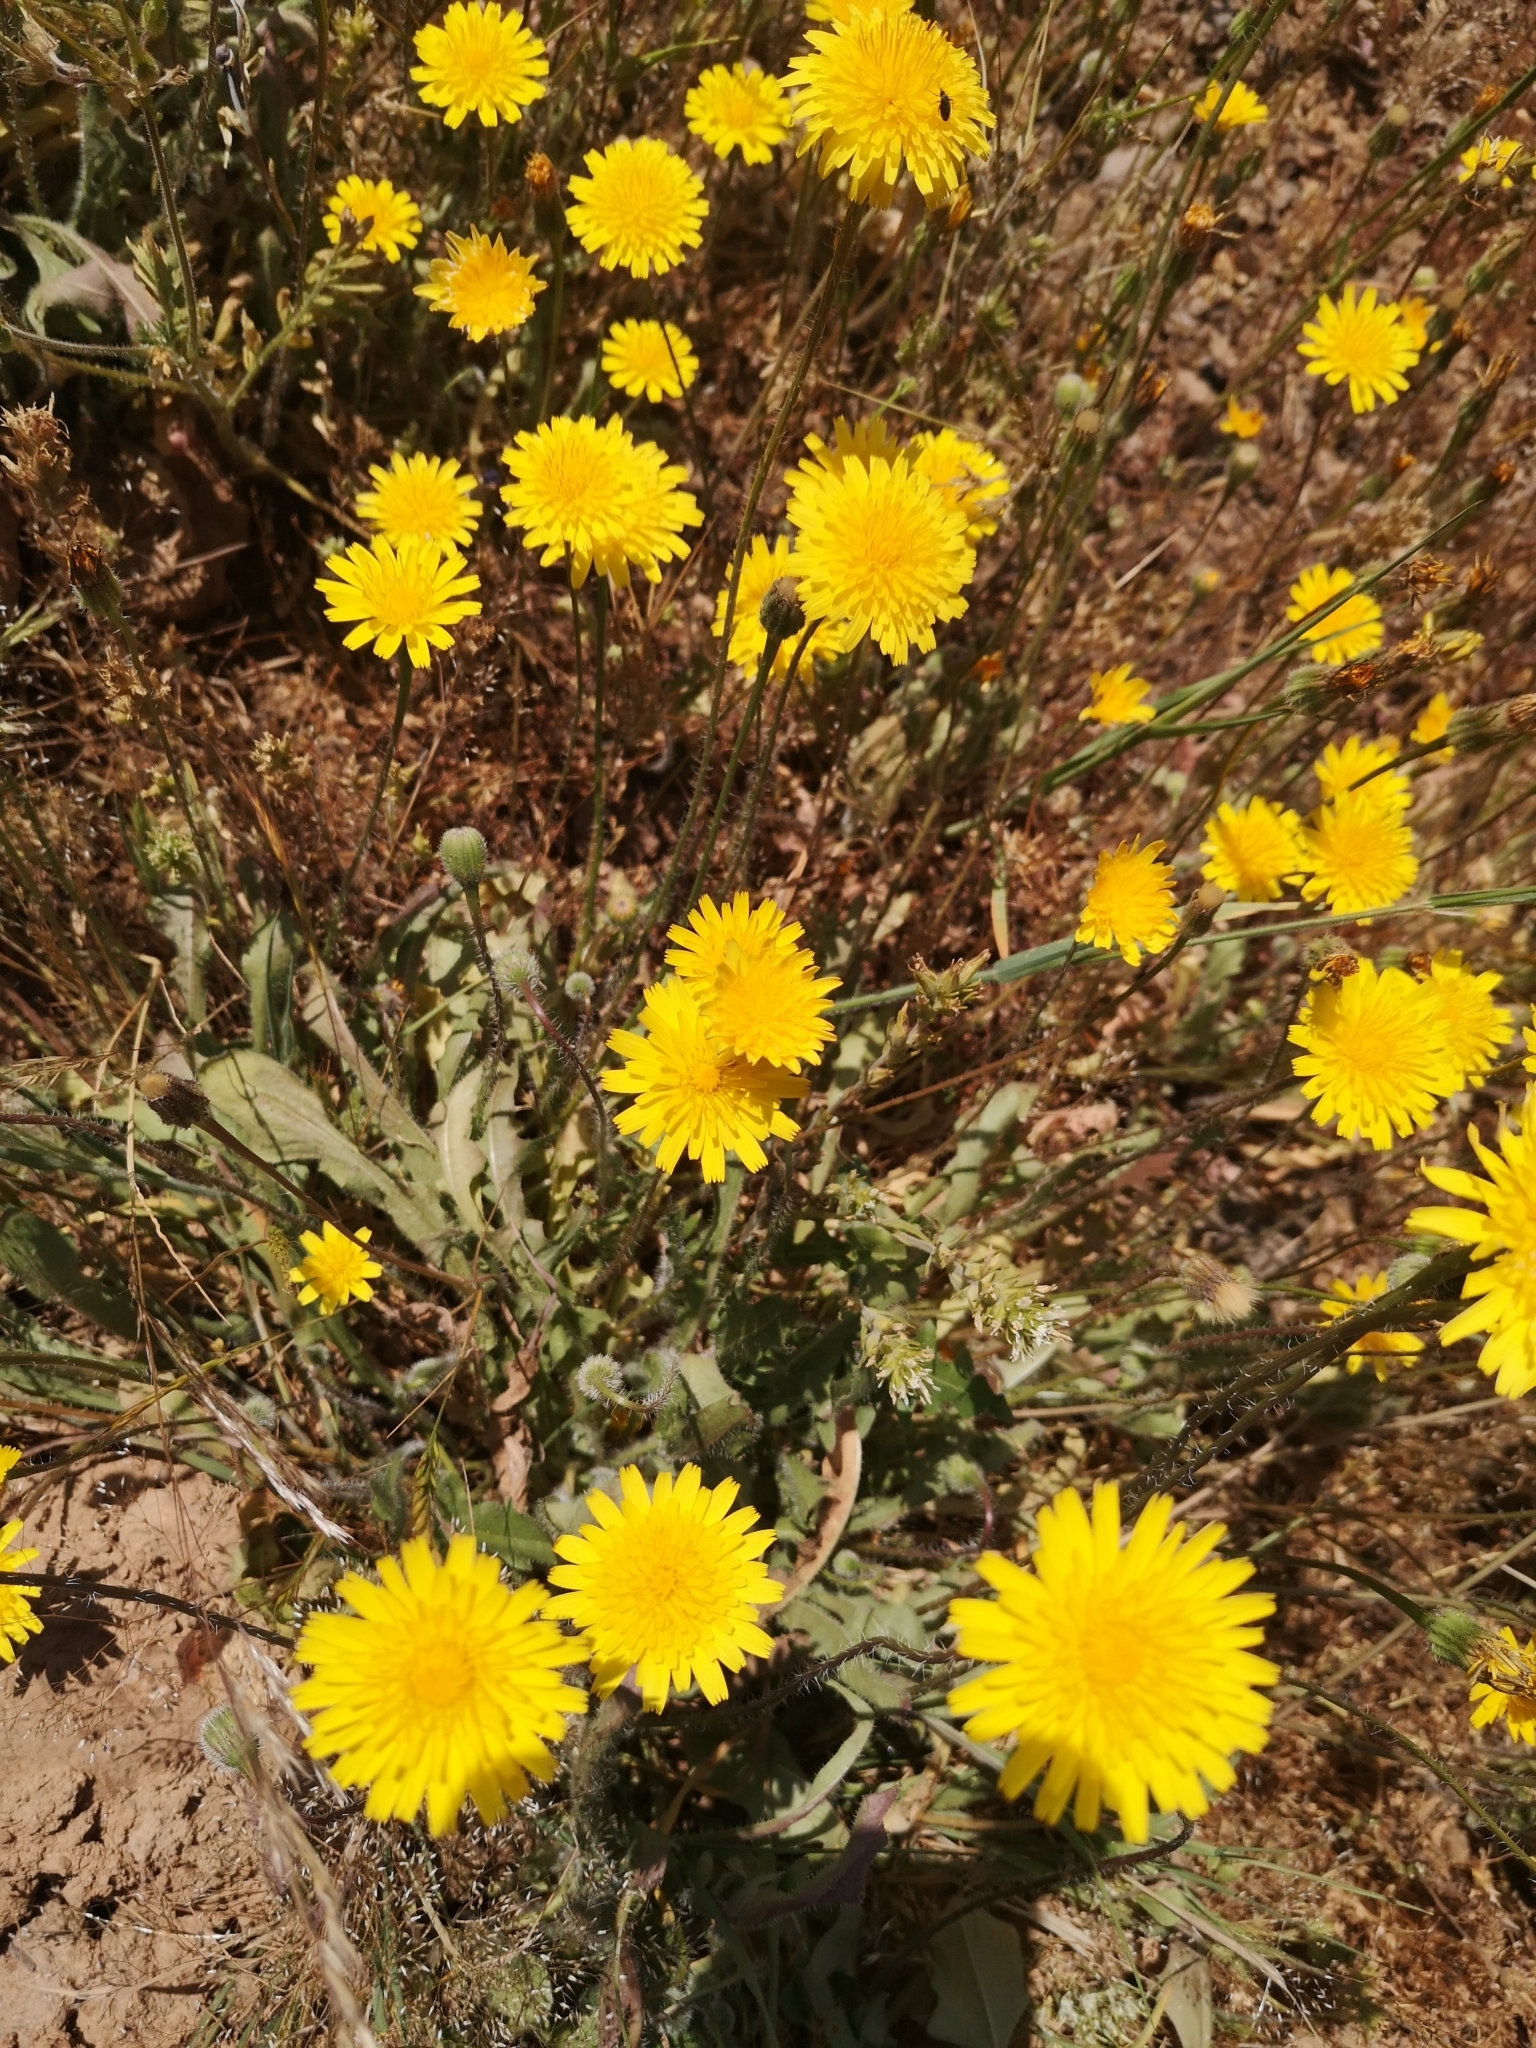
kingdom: Plantae
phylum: Tracheophyta
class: Magnoliopsida
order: Asterales
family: Asteraceae
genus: Taraxacum
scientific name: Taraxacum officinale
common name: Common dandelion
